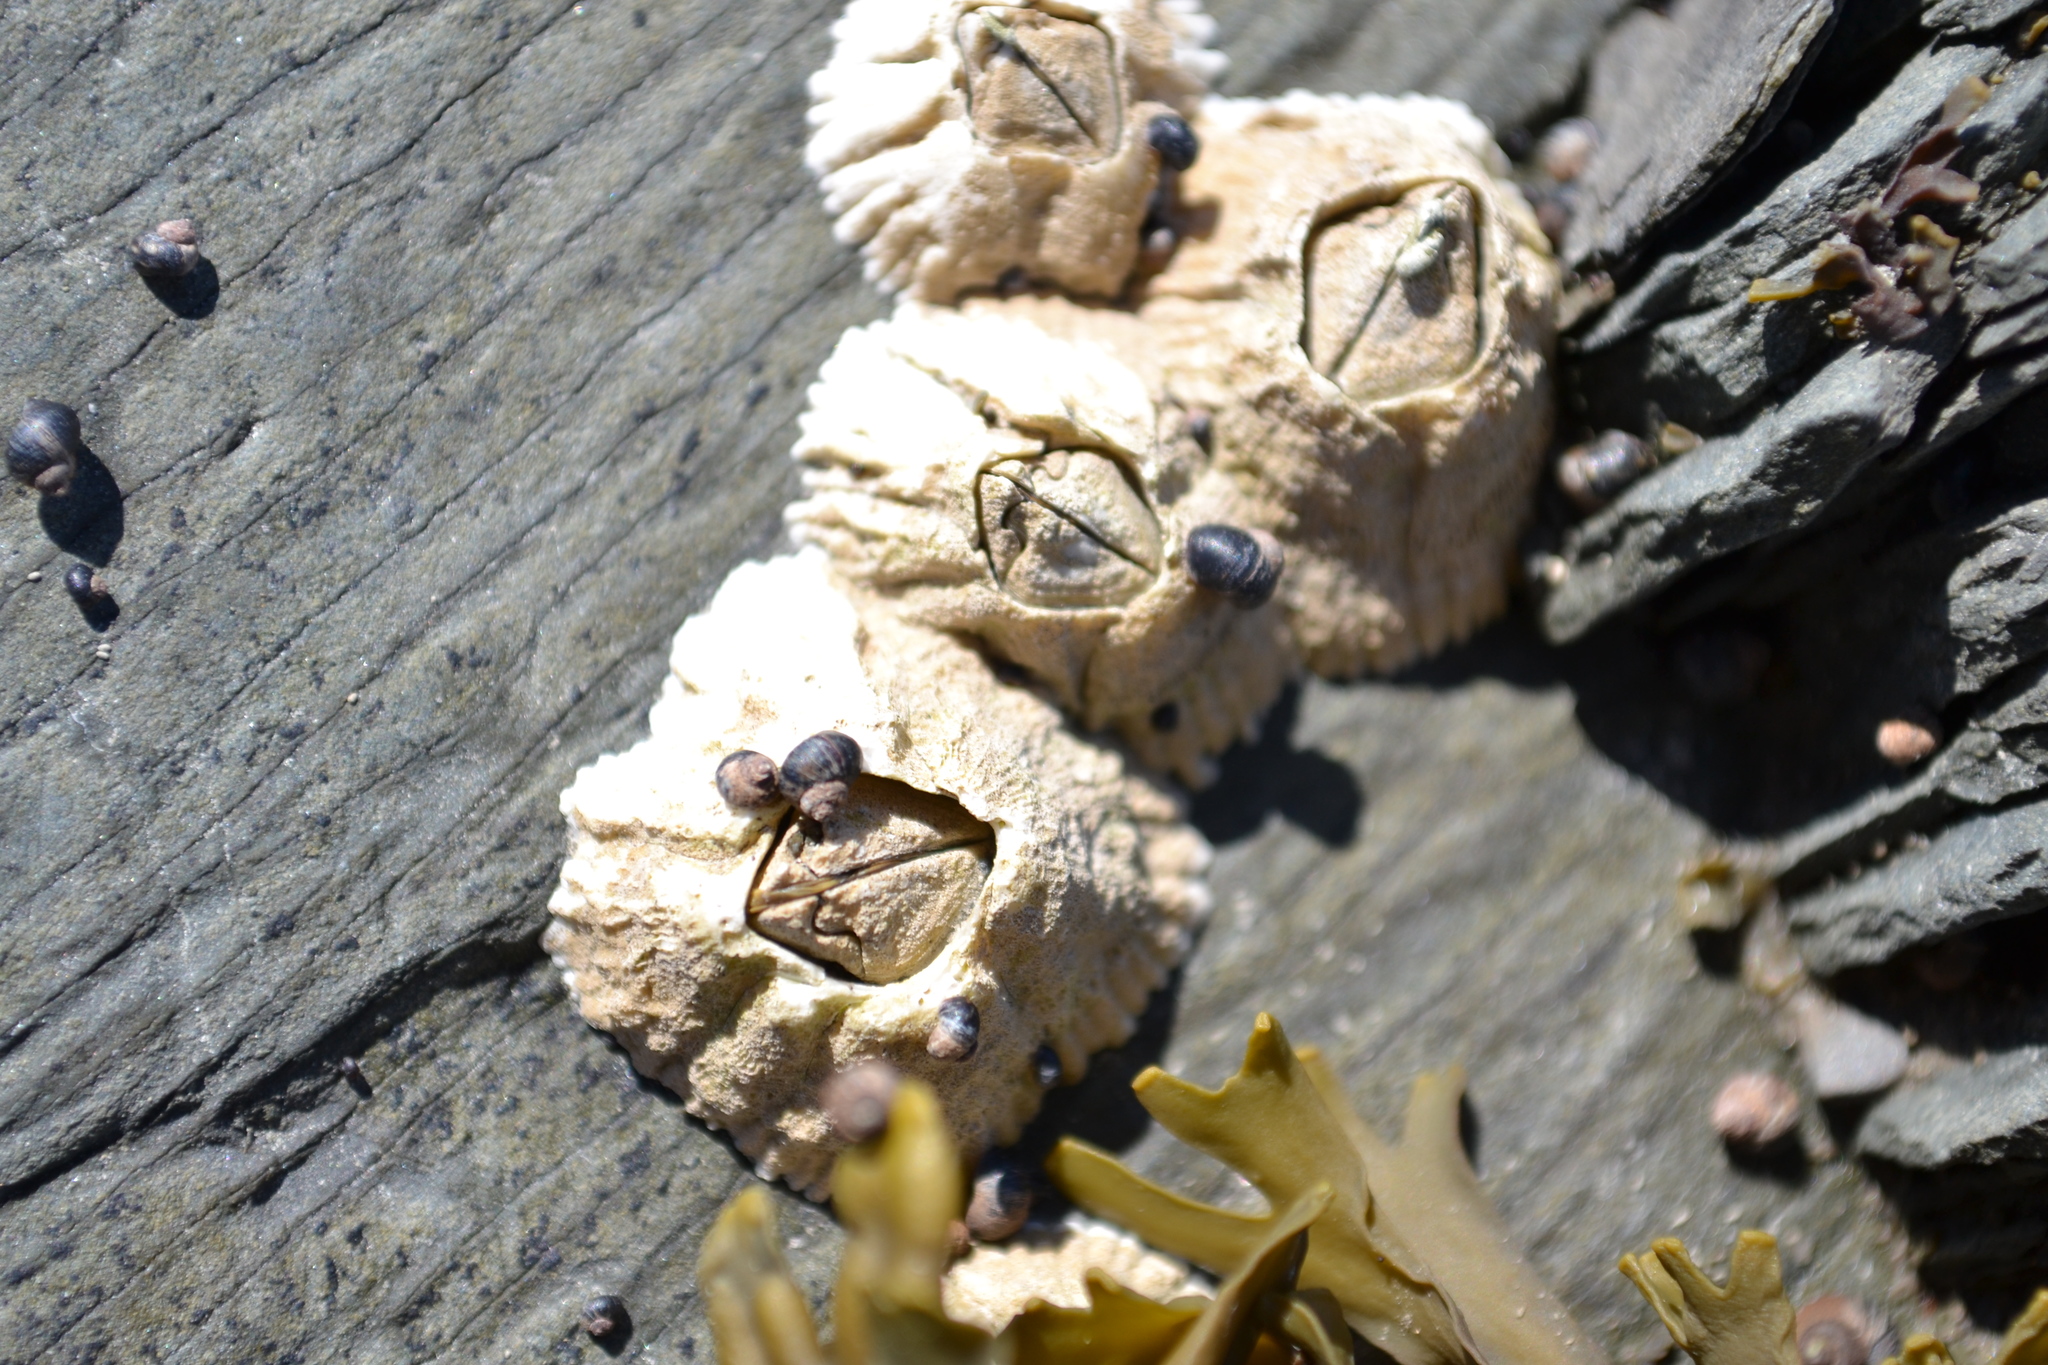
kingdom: Animalia
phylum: Arthropoda
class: Maxillopoda
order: Sessilia
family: Archaeobalanidae
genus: Semibalanus
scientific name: Semibalanus balanoides
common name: Acorn barnacle
